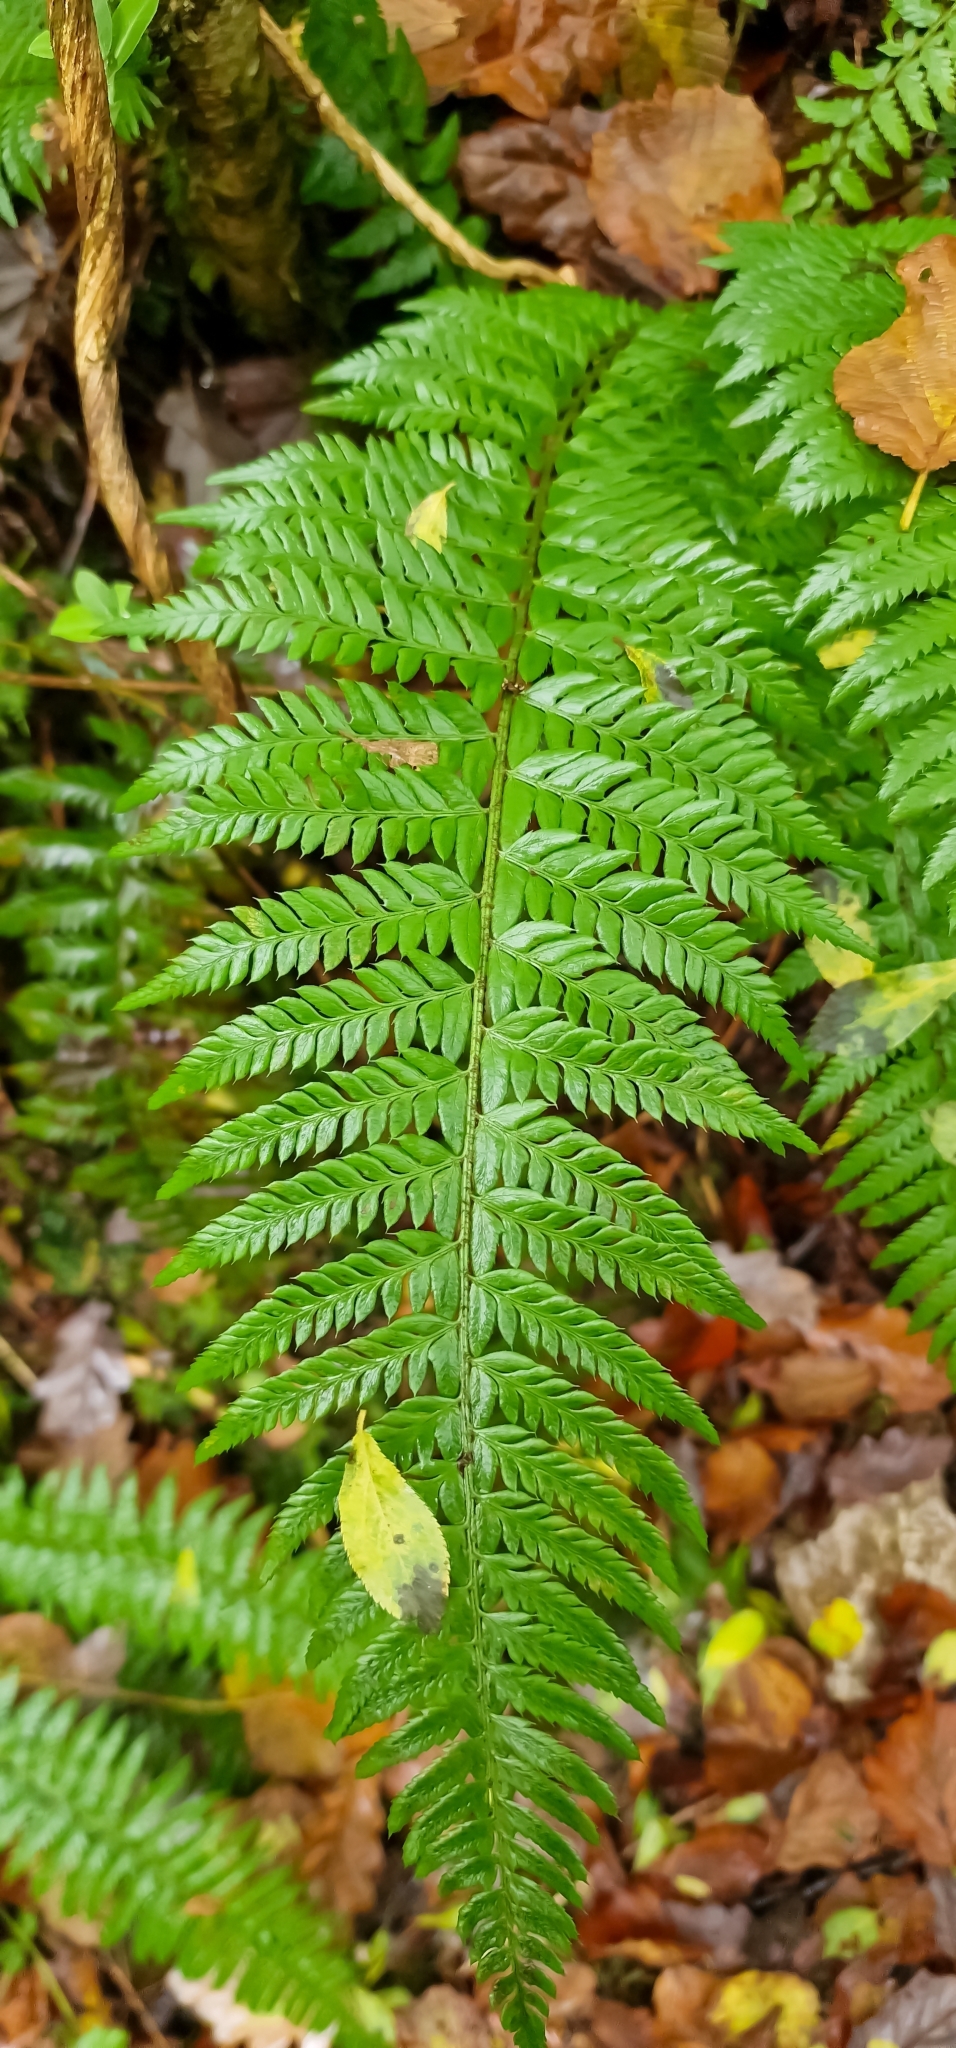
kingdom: Plantae
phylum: Tracheophyta
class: Polypodiopsida
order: Polypodiales
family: Dryopteridaceae
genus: Polystichum
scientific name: Polystichum aculeatum
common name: Hard shield-fern
